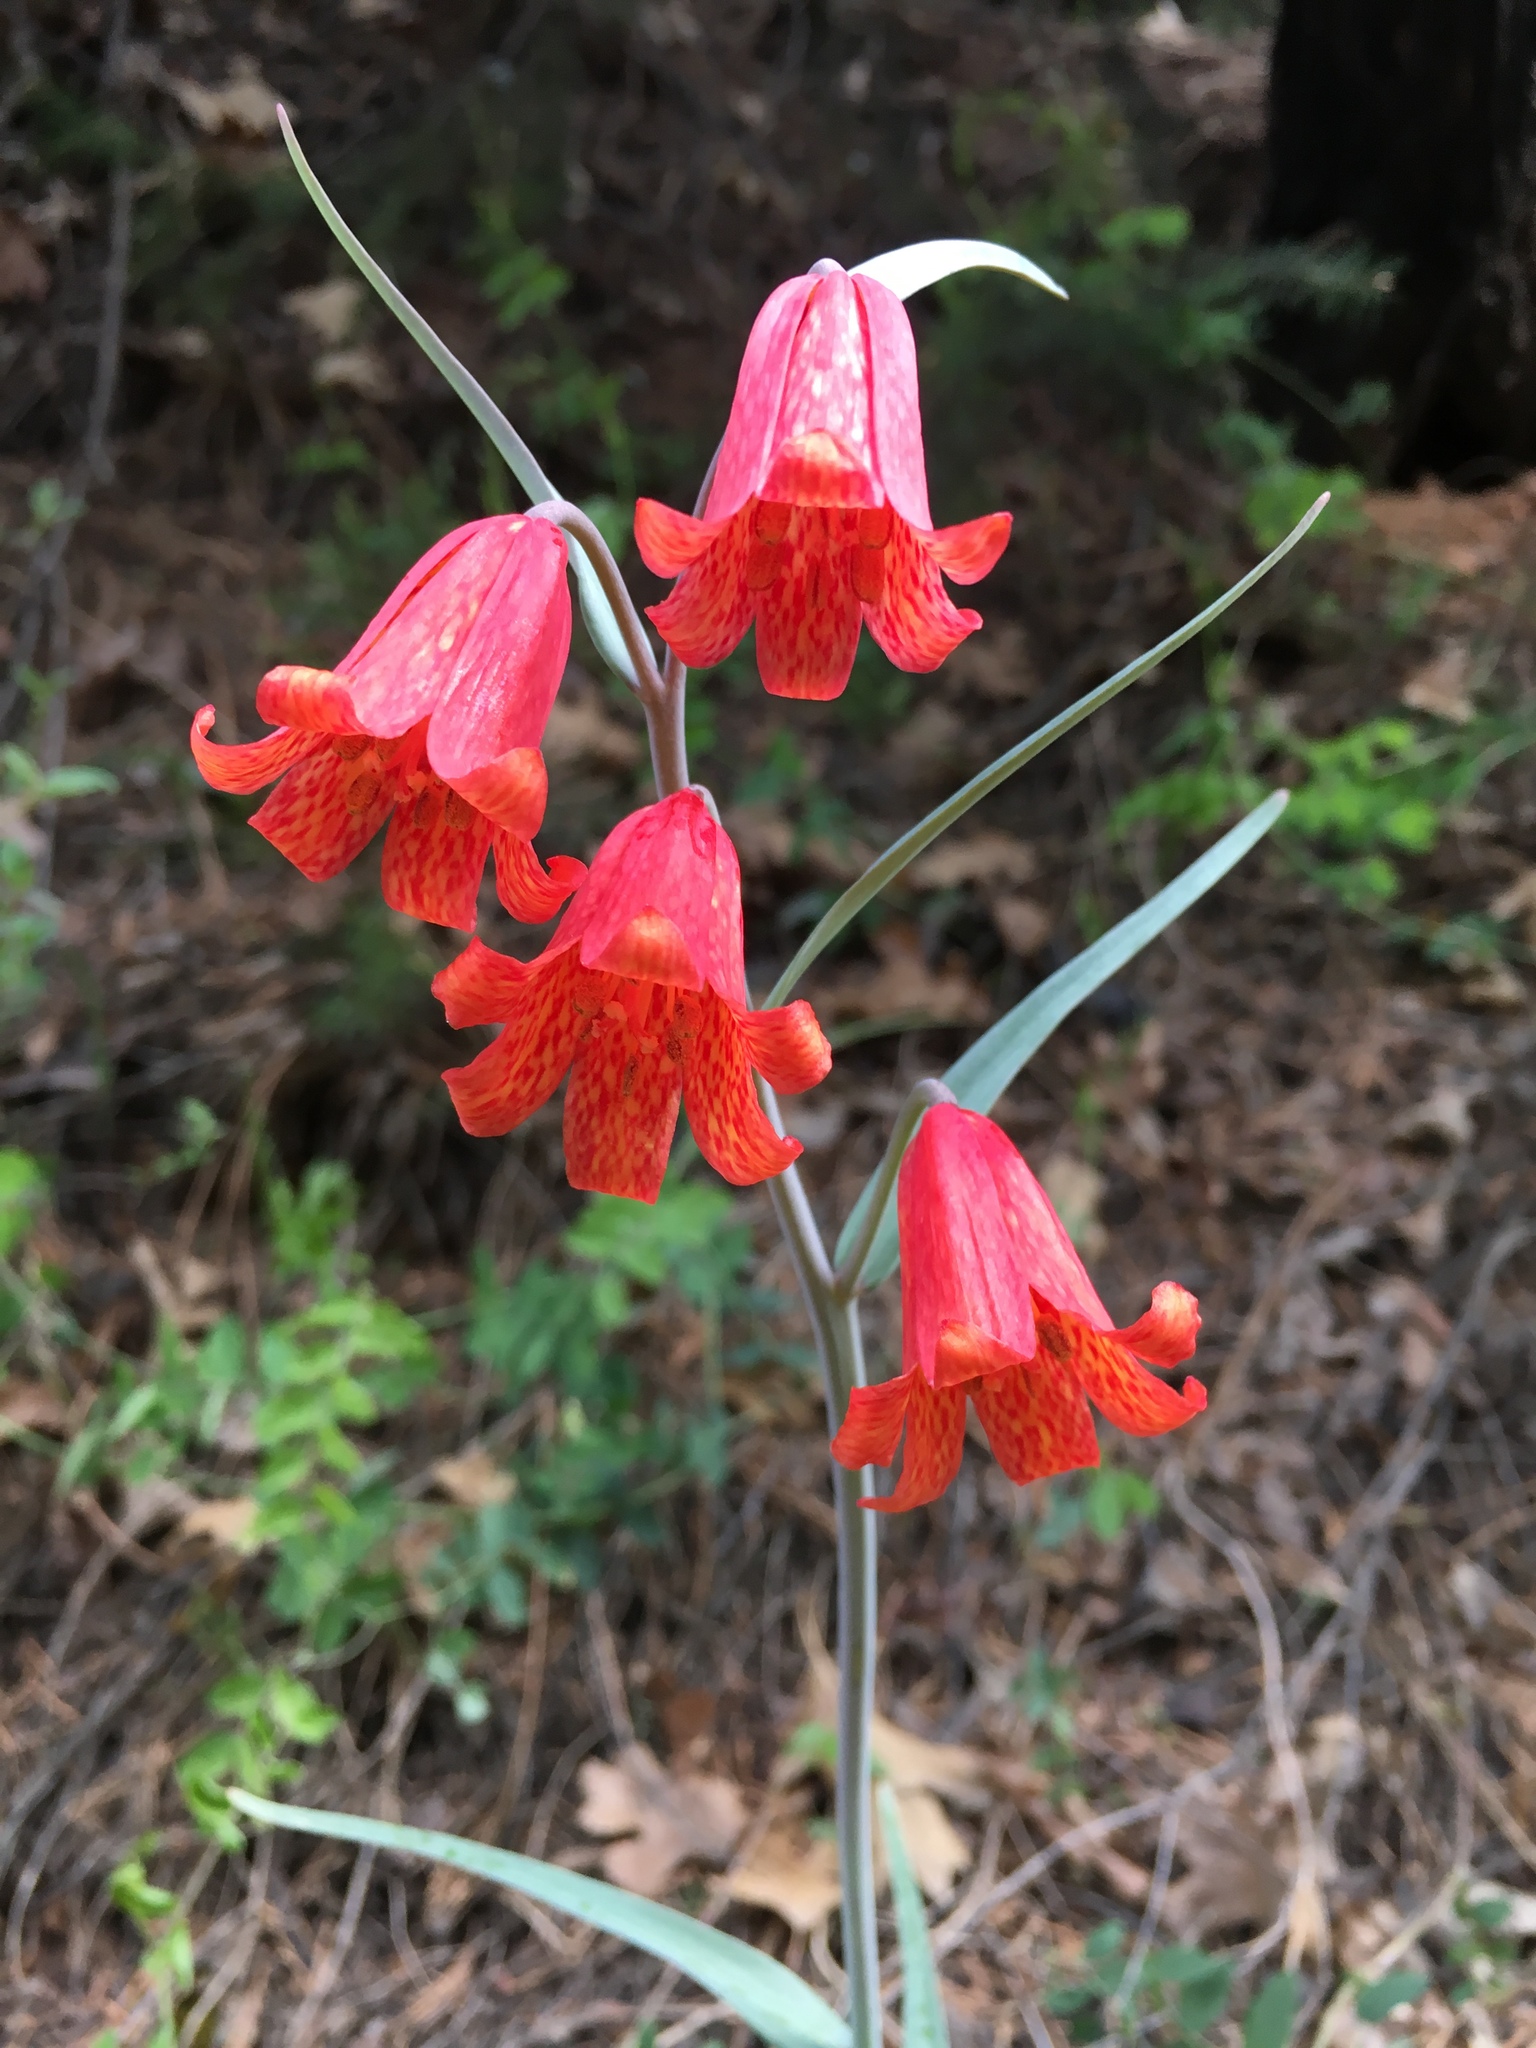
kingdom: Plantae
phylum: Tracheophyta
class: Liliopsida
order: Liliales
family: Liliaceae
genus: Fritillaria
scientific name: Fritillaria recurva
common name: Scarlet fritillary
